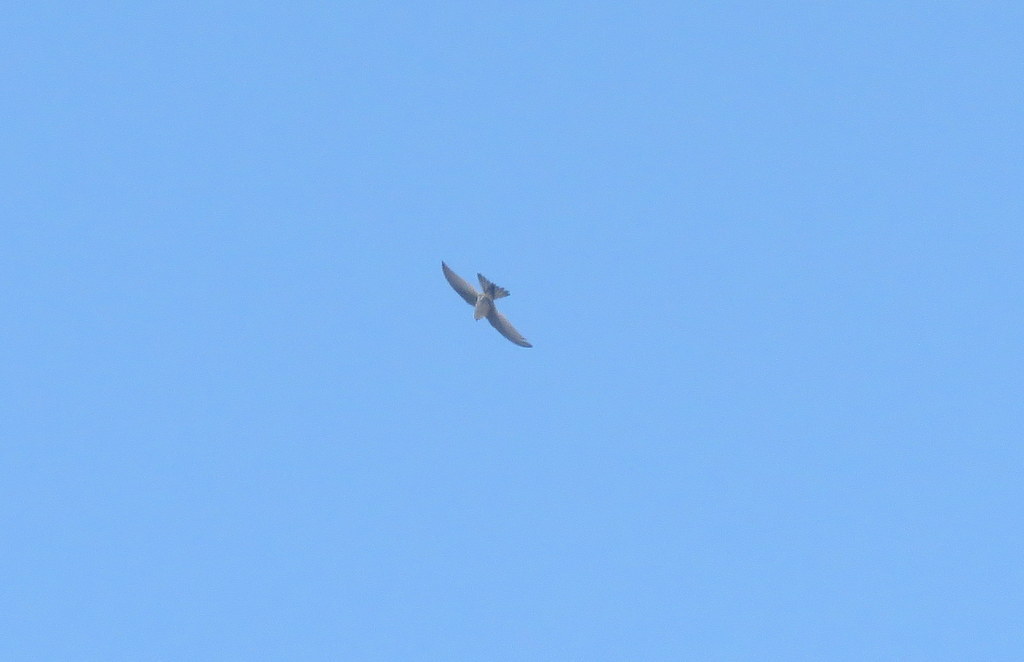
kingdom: Animalia
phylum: Chordata
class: Aves
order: Apodiformes
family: Apodidae
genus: Aeronautes
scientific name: Aeronautes andecolus
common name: Andean swift
